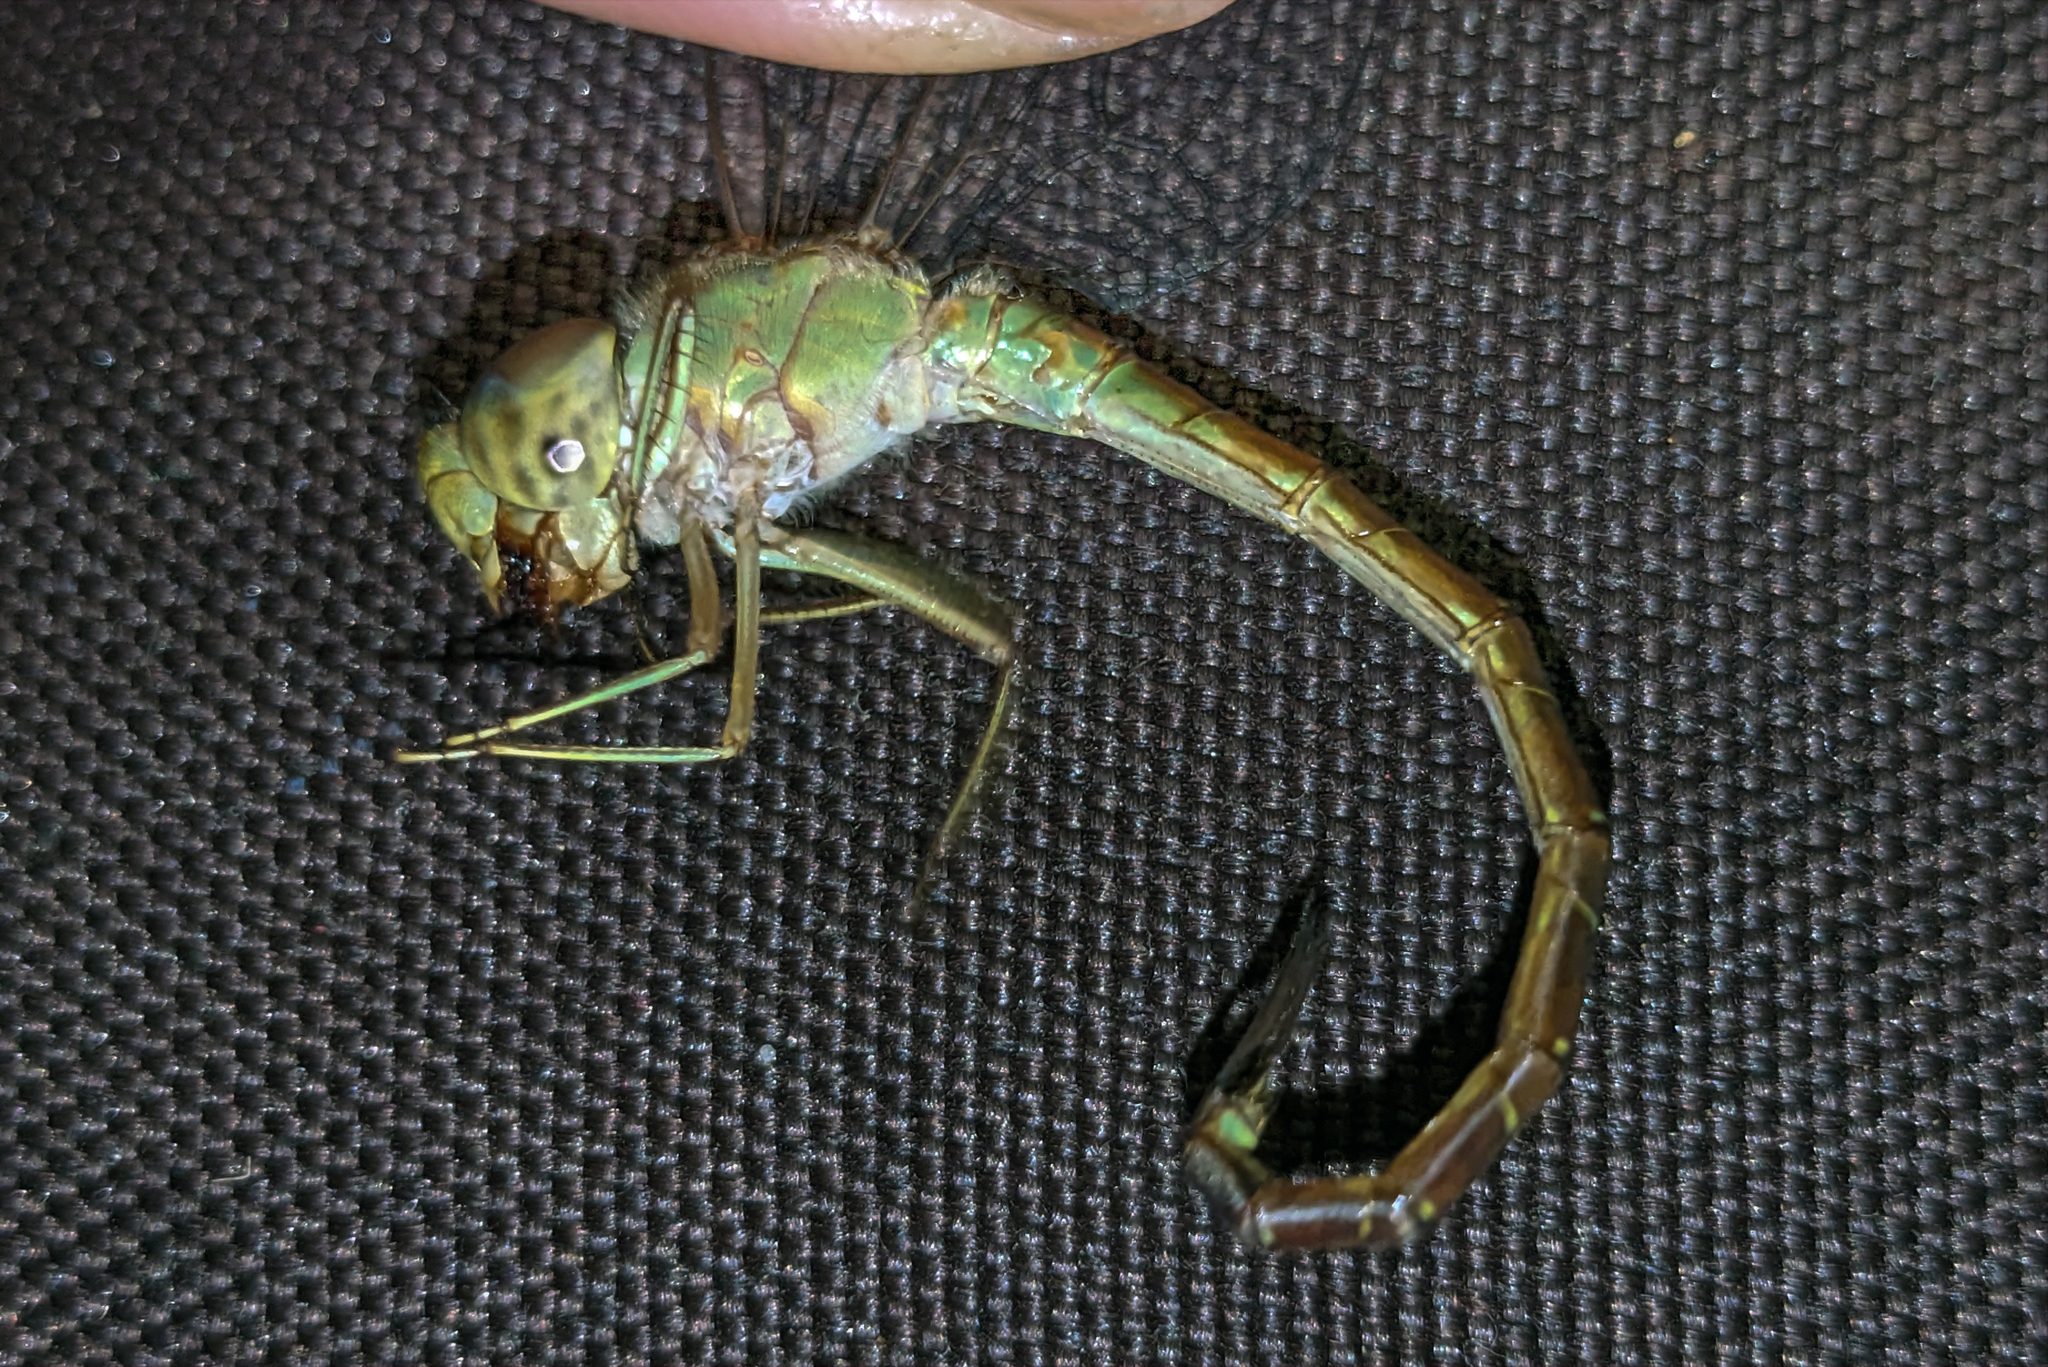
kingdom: Animalia
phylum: Arthropoda
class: Insecta
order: Odonata
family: Aeshnidae
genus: Triacanthagyna
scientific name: Triacanthagyna septima
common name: Pale-green darner
